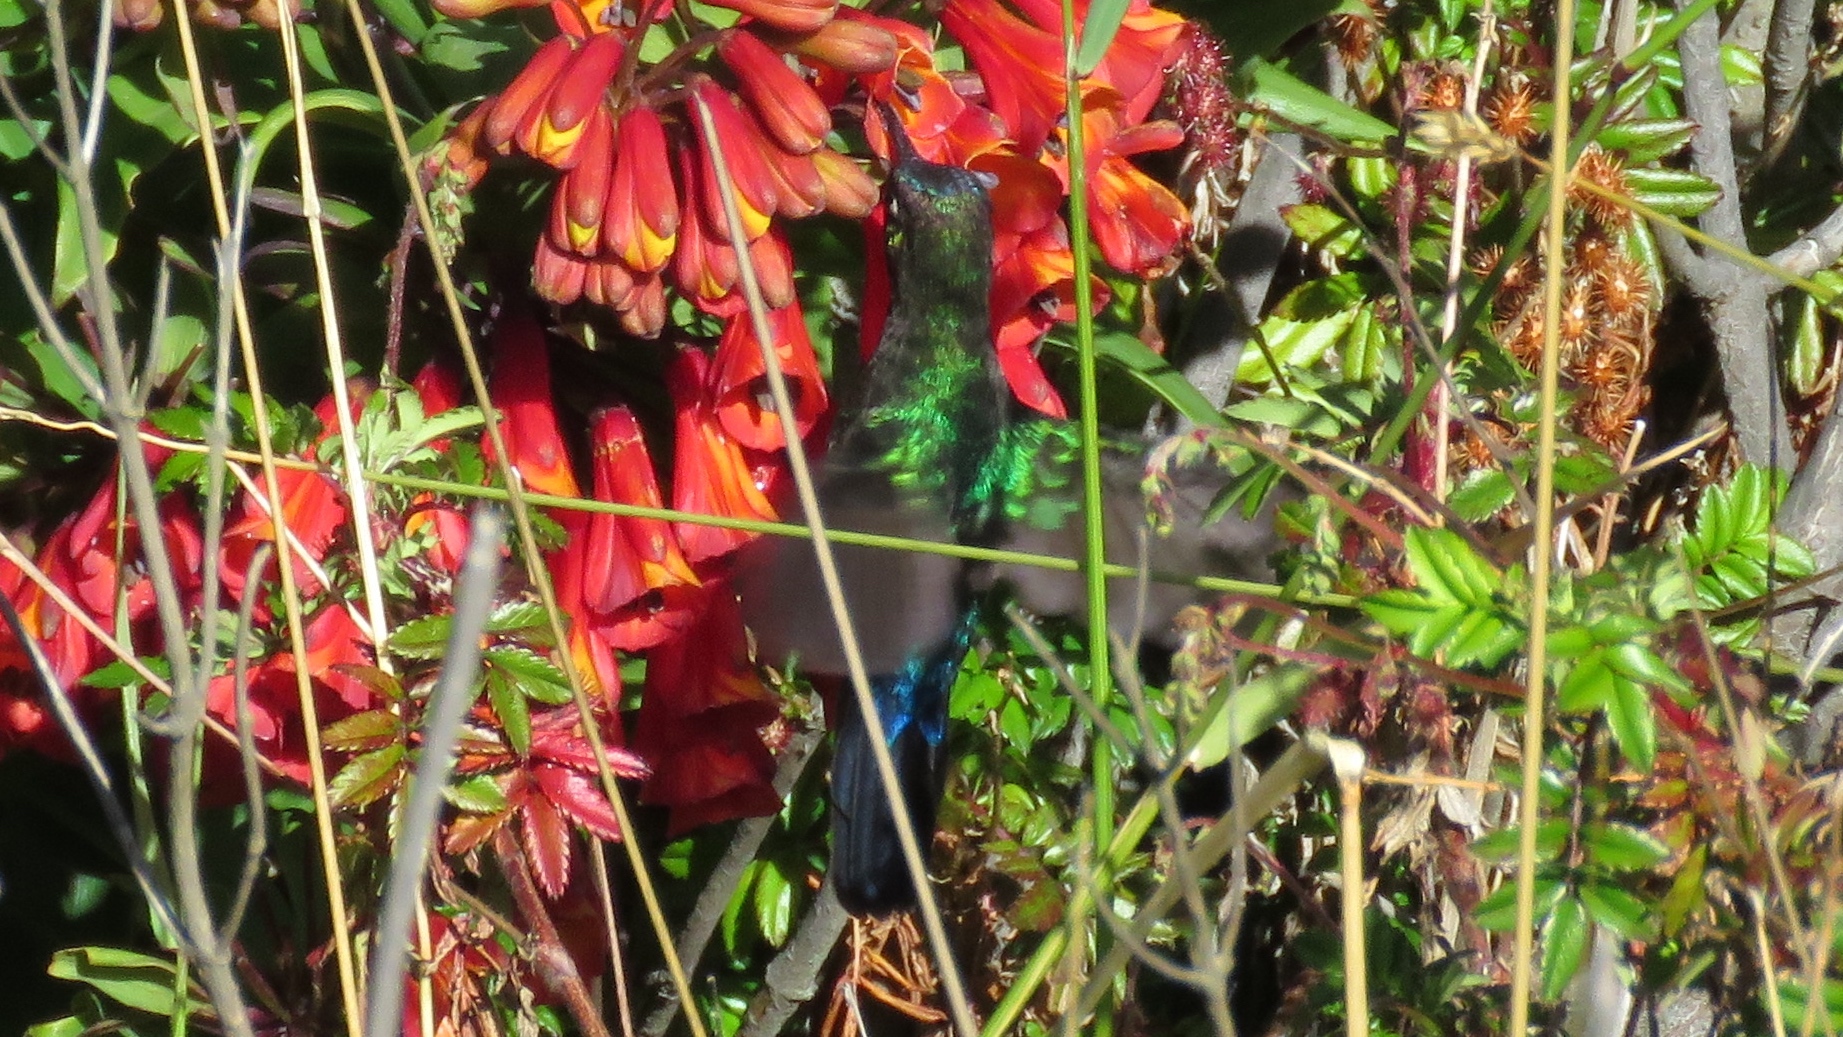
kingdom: Animalia
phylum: Chordata
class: Aves
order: Apodiformes
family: Trochilidae
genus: Panterpe
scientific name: Panterpe insignis
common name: Fiery-throated hummingbird
